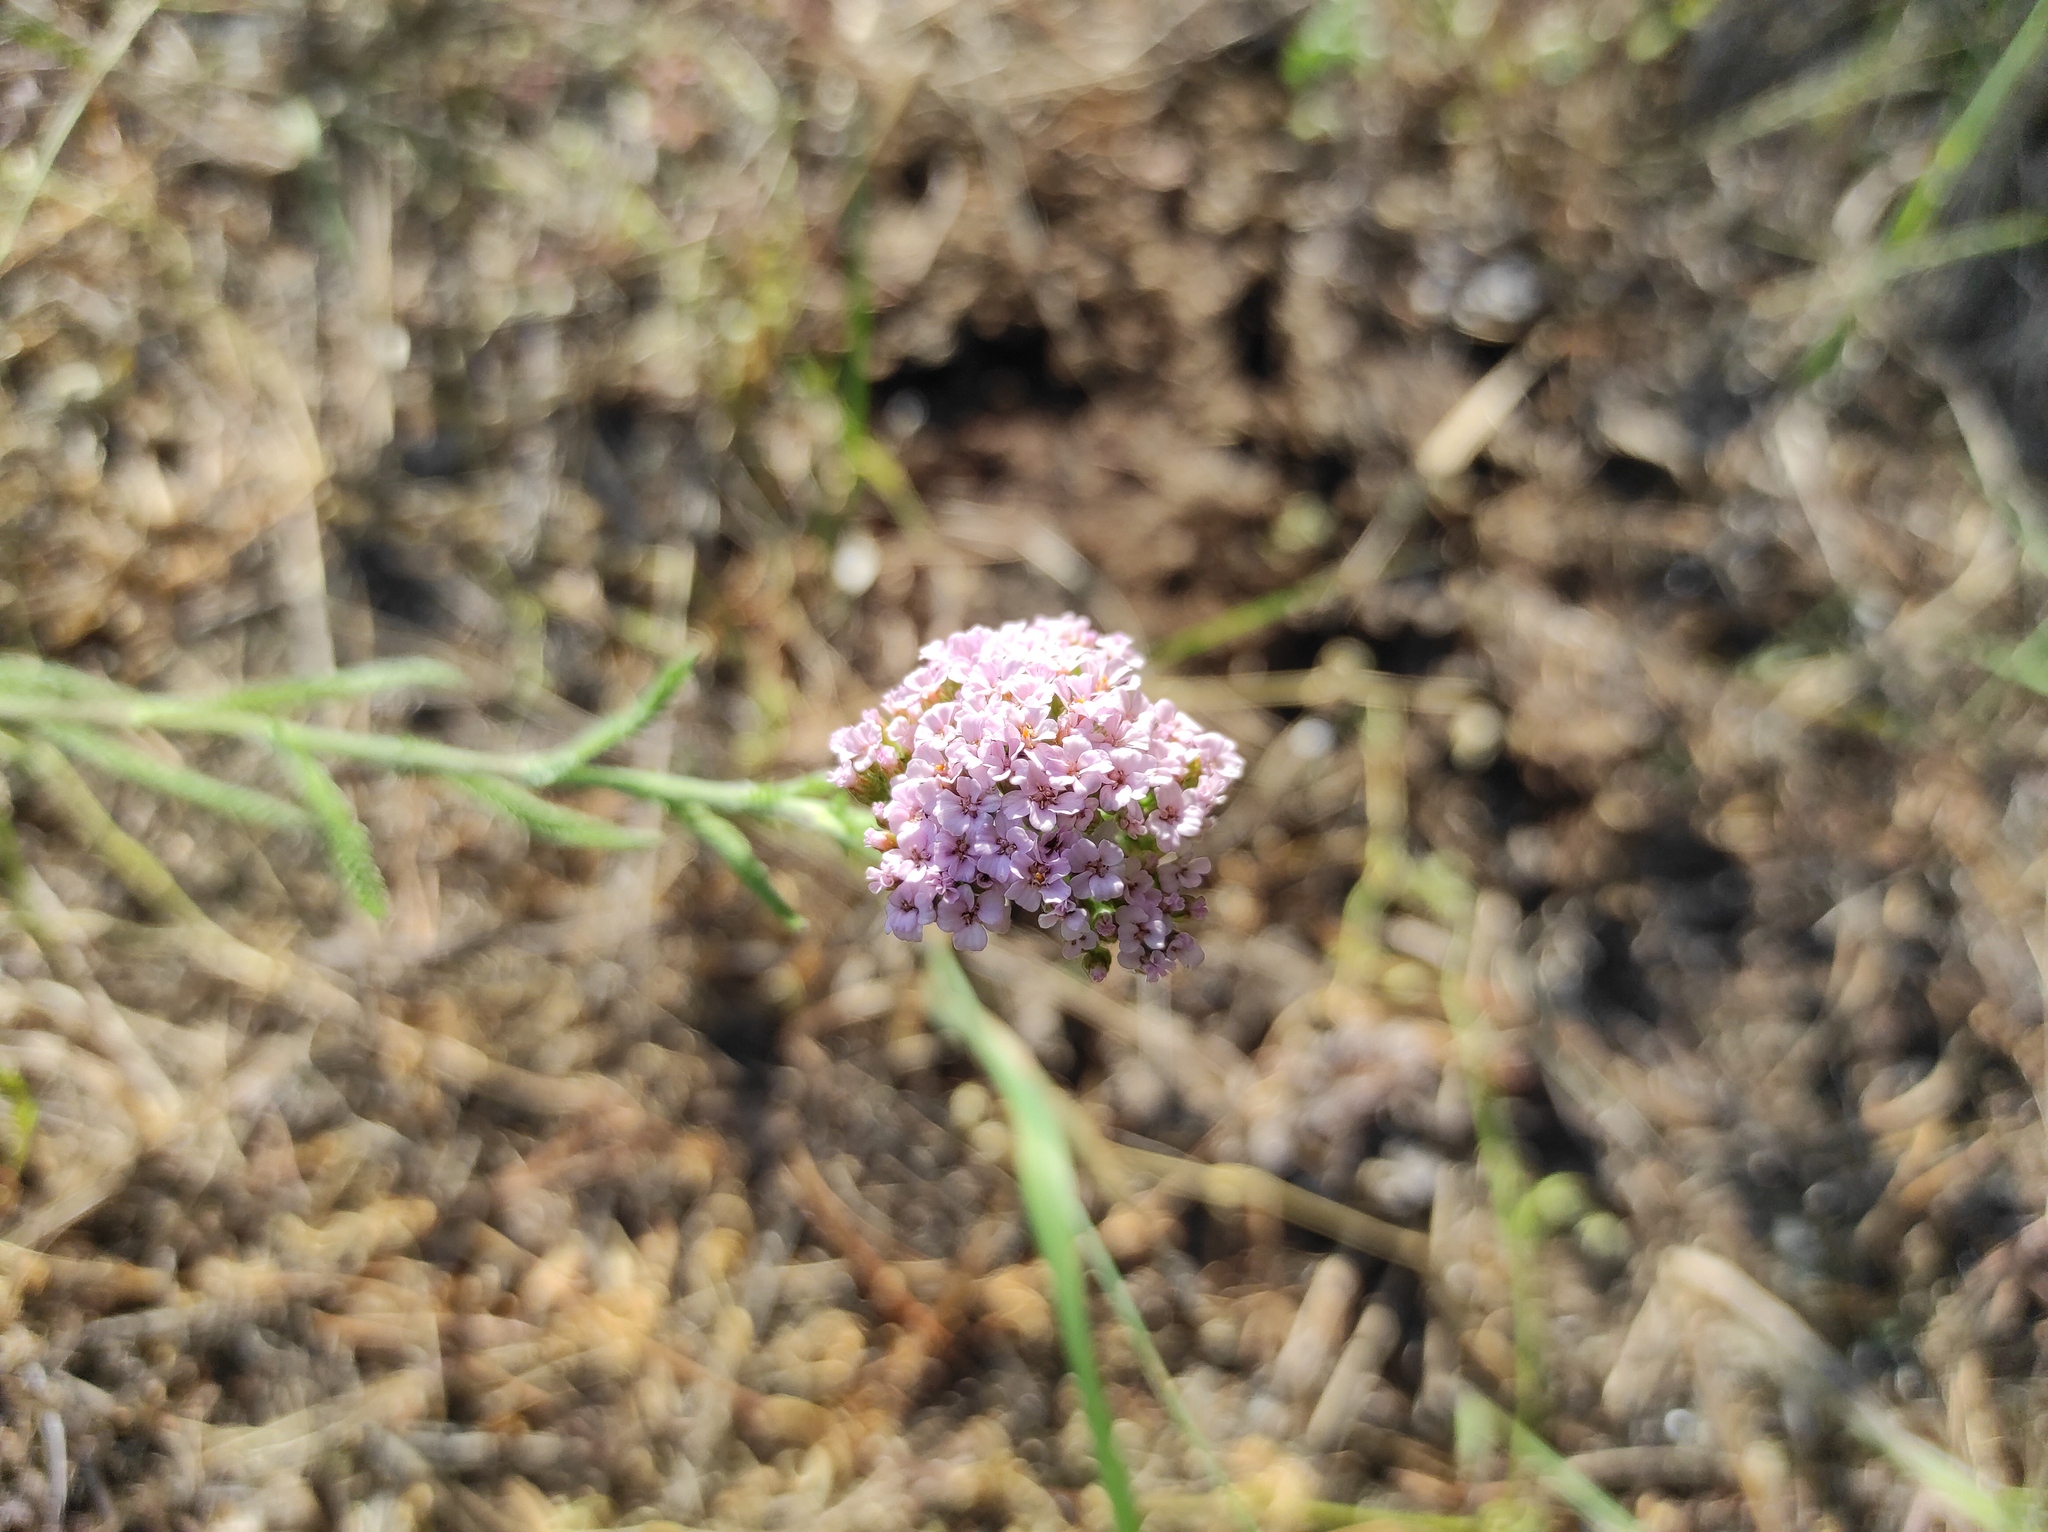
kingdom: Plantae
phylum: Tracheophyta
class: Magnoliopsida
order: Asterales
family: Asteraceae
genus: Achillea
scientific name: Achillea asiatica
